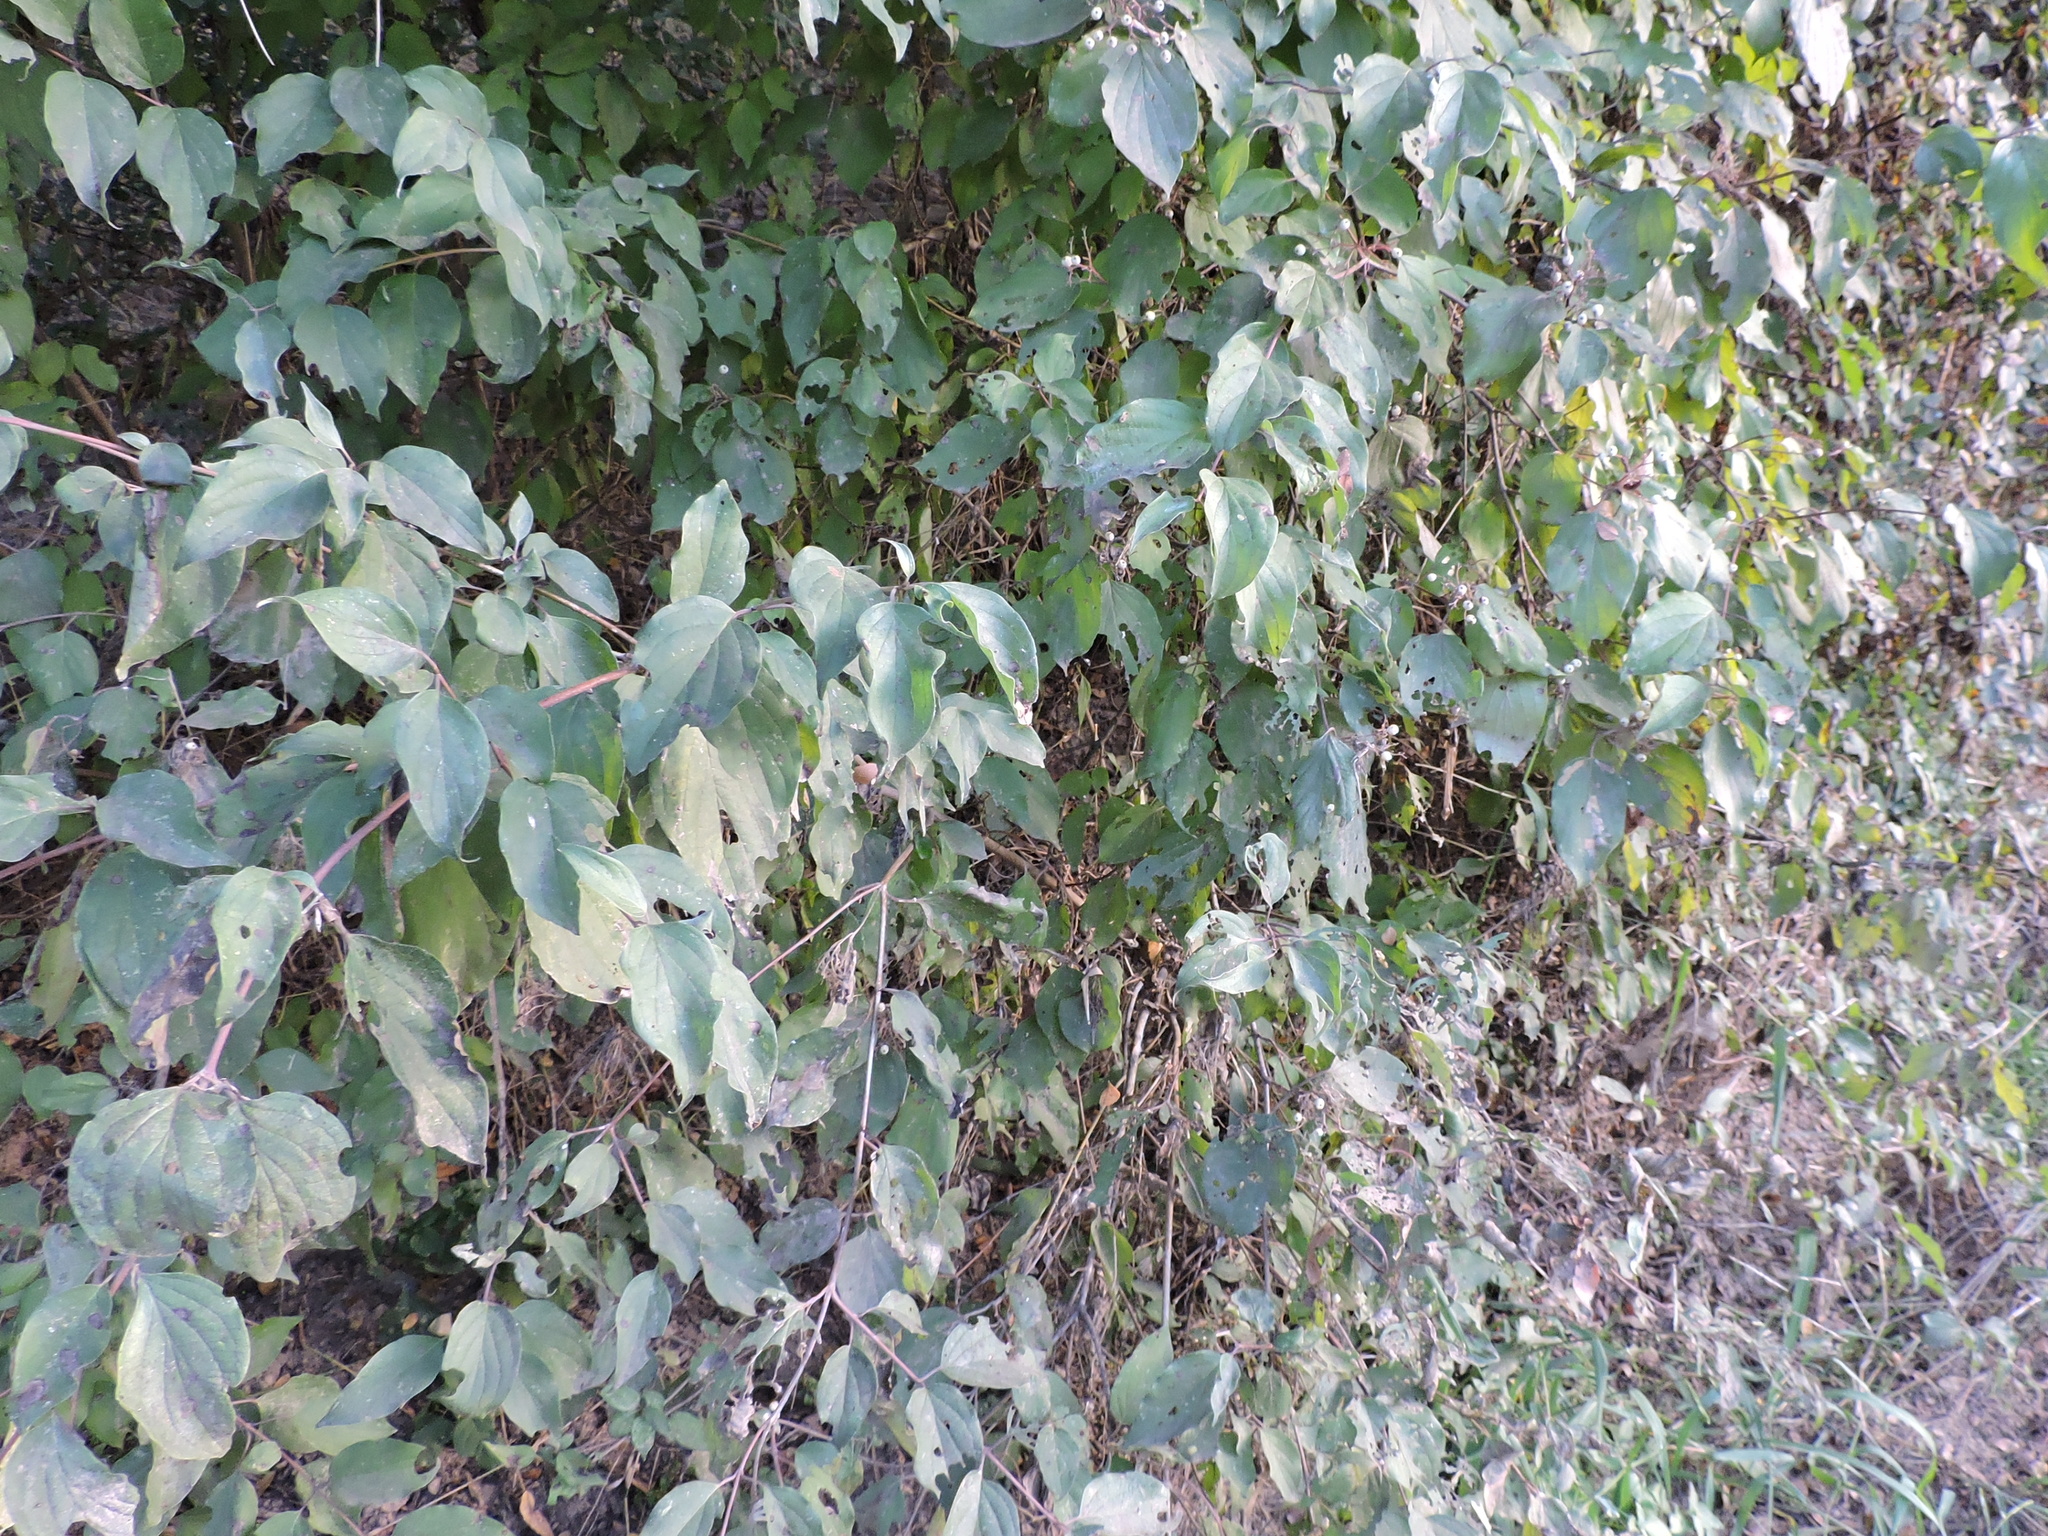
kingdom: Plantae
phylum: Tracheophyta
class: Magnoliopsida
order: Cornales
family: Cornaceae
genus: Cornus
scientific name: Cornus drummondii
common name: Rough-leaf dogwood
